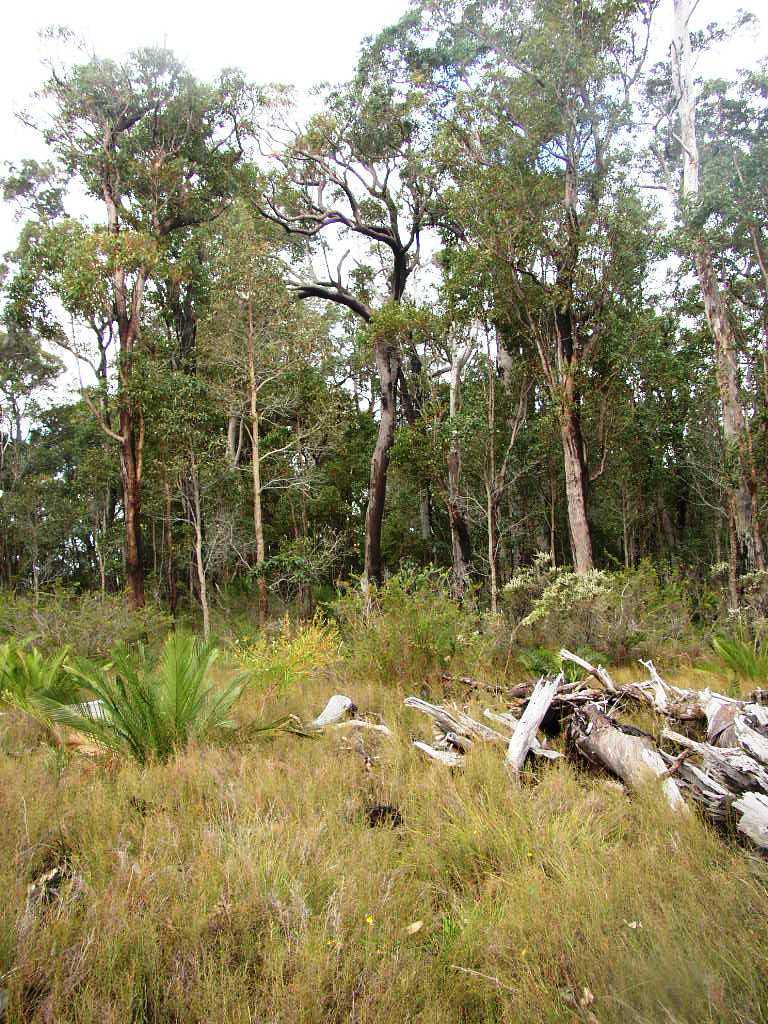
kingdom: Plantae
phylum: Tracheophyta
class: Cycadopsida
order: Cycadales
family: Zamiaceae
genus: Macrozamia
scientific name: Macrozamia riedlei
